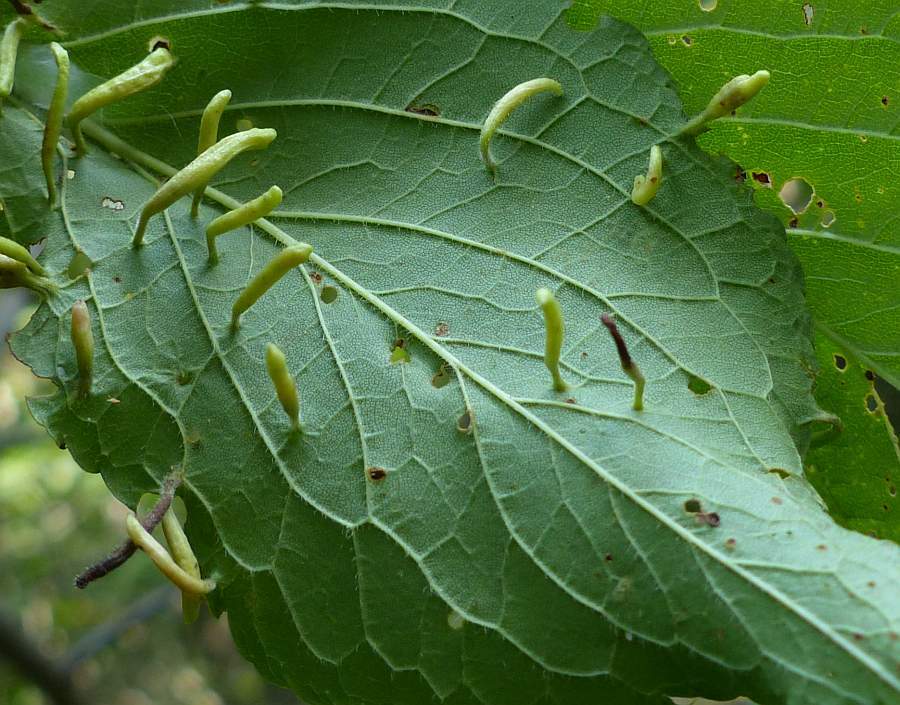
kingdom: Animalia
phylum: Arthropoda
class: Arachnida
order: Trombidiformes
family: Eriophyidae
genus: Eriophyes
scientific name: Eriophyes
